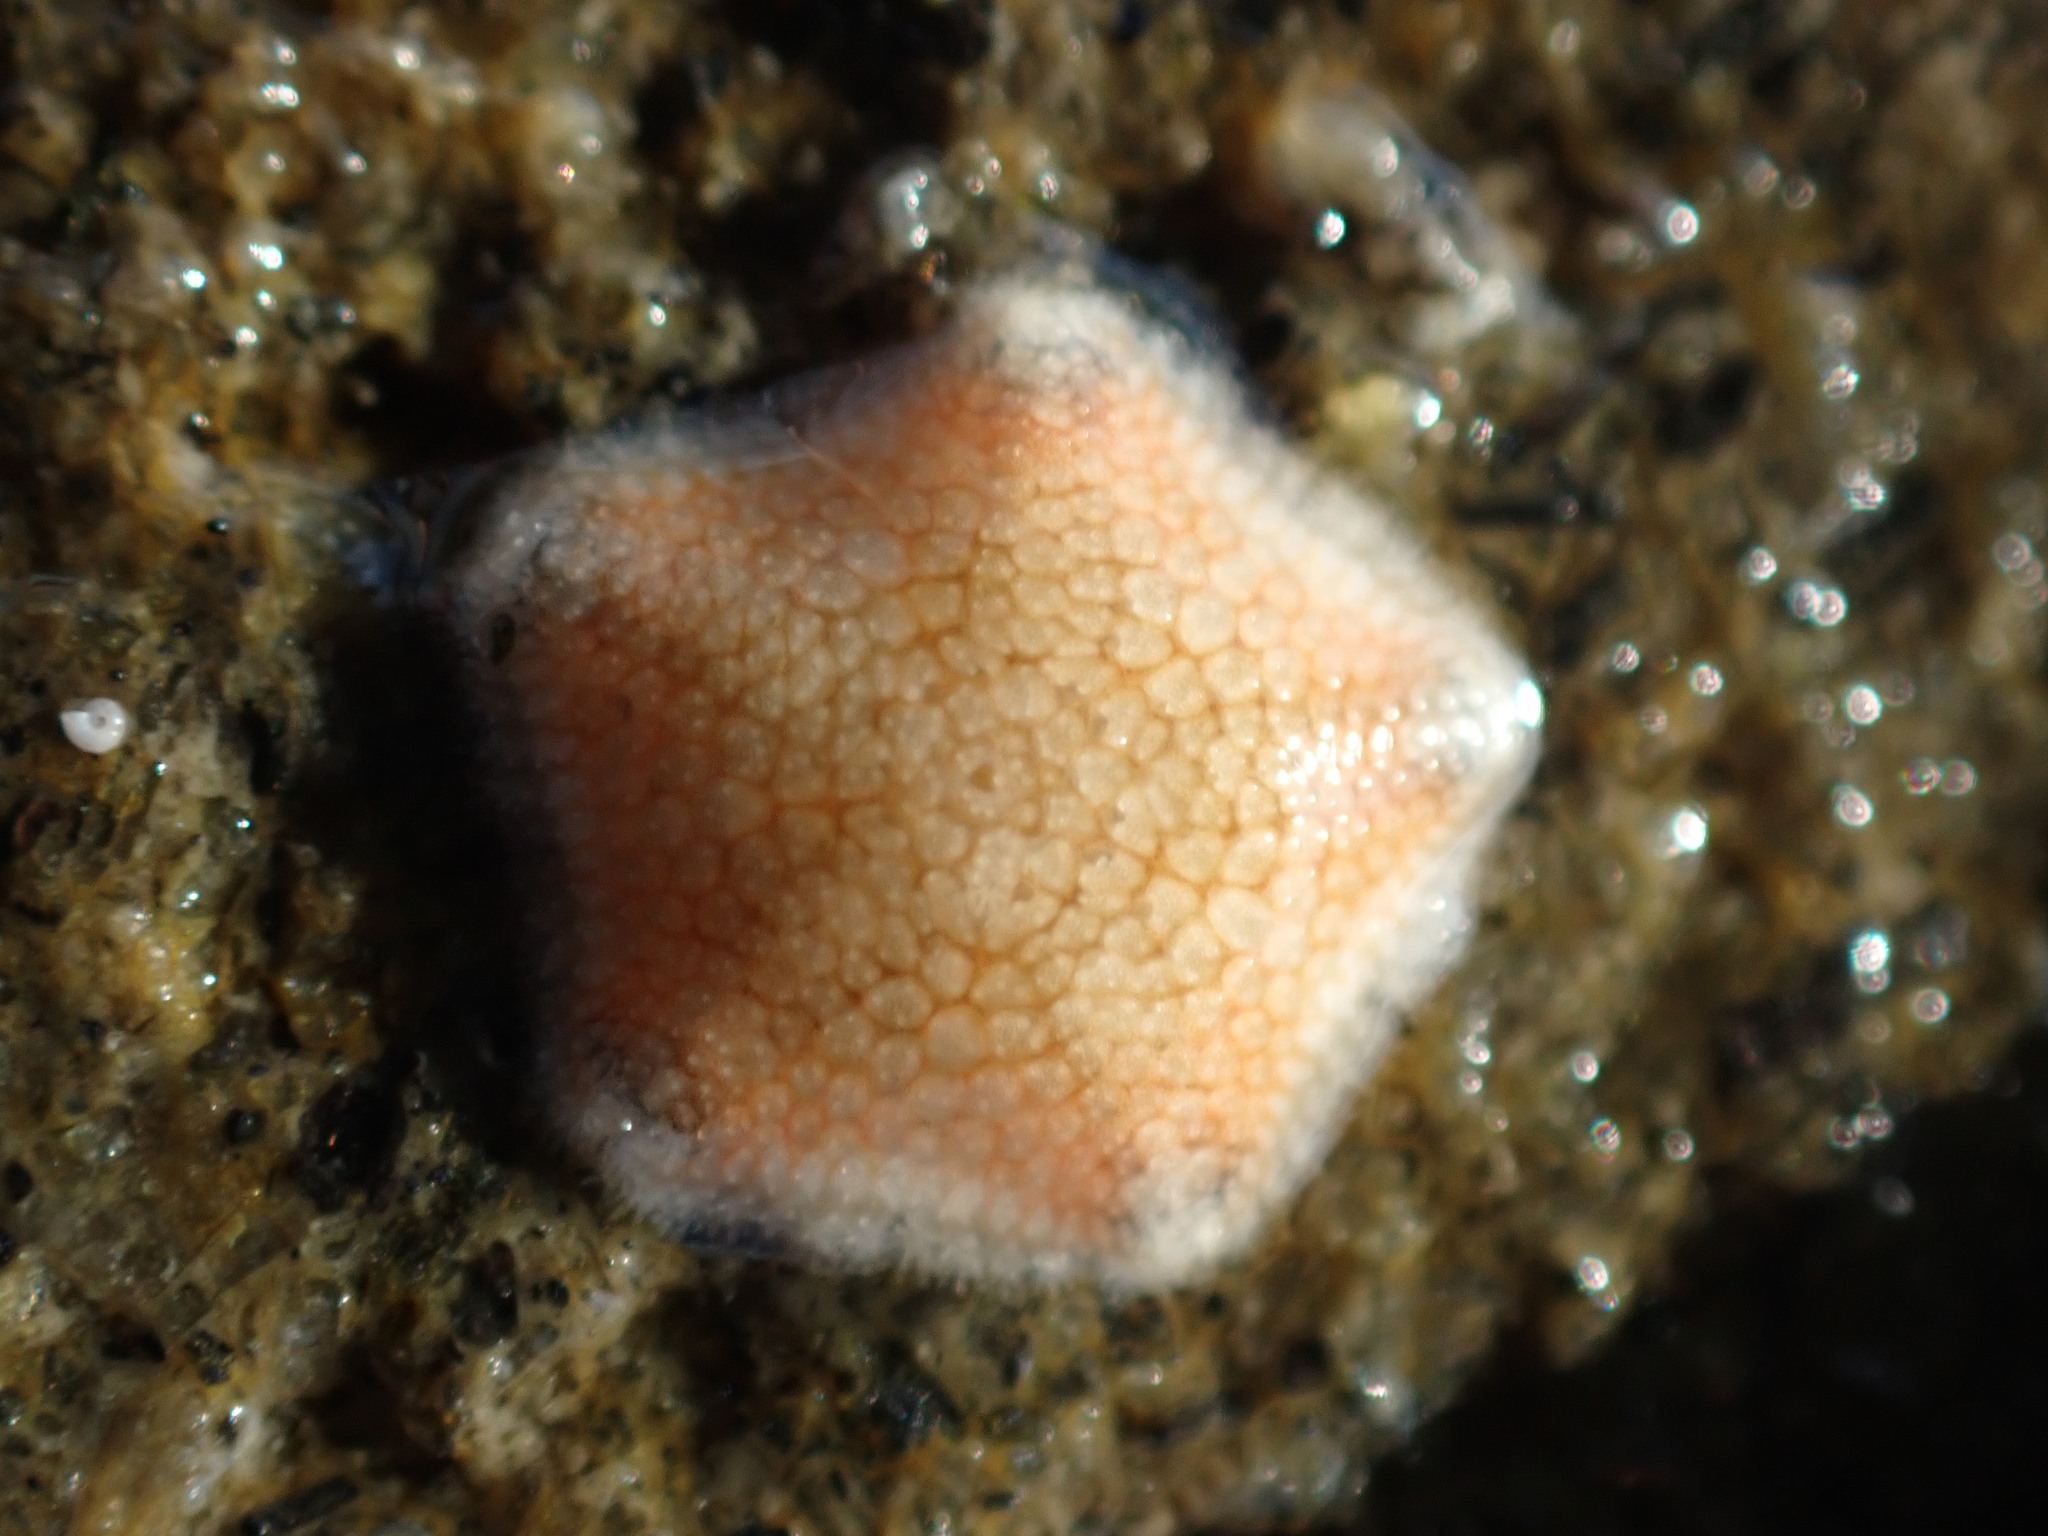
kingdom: Animalia
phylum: Echinodermata
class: Asteroidea
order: Valvatida
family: Asterinidae
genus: Patiriella
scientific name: Patiriella regularis
